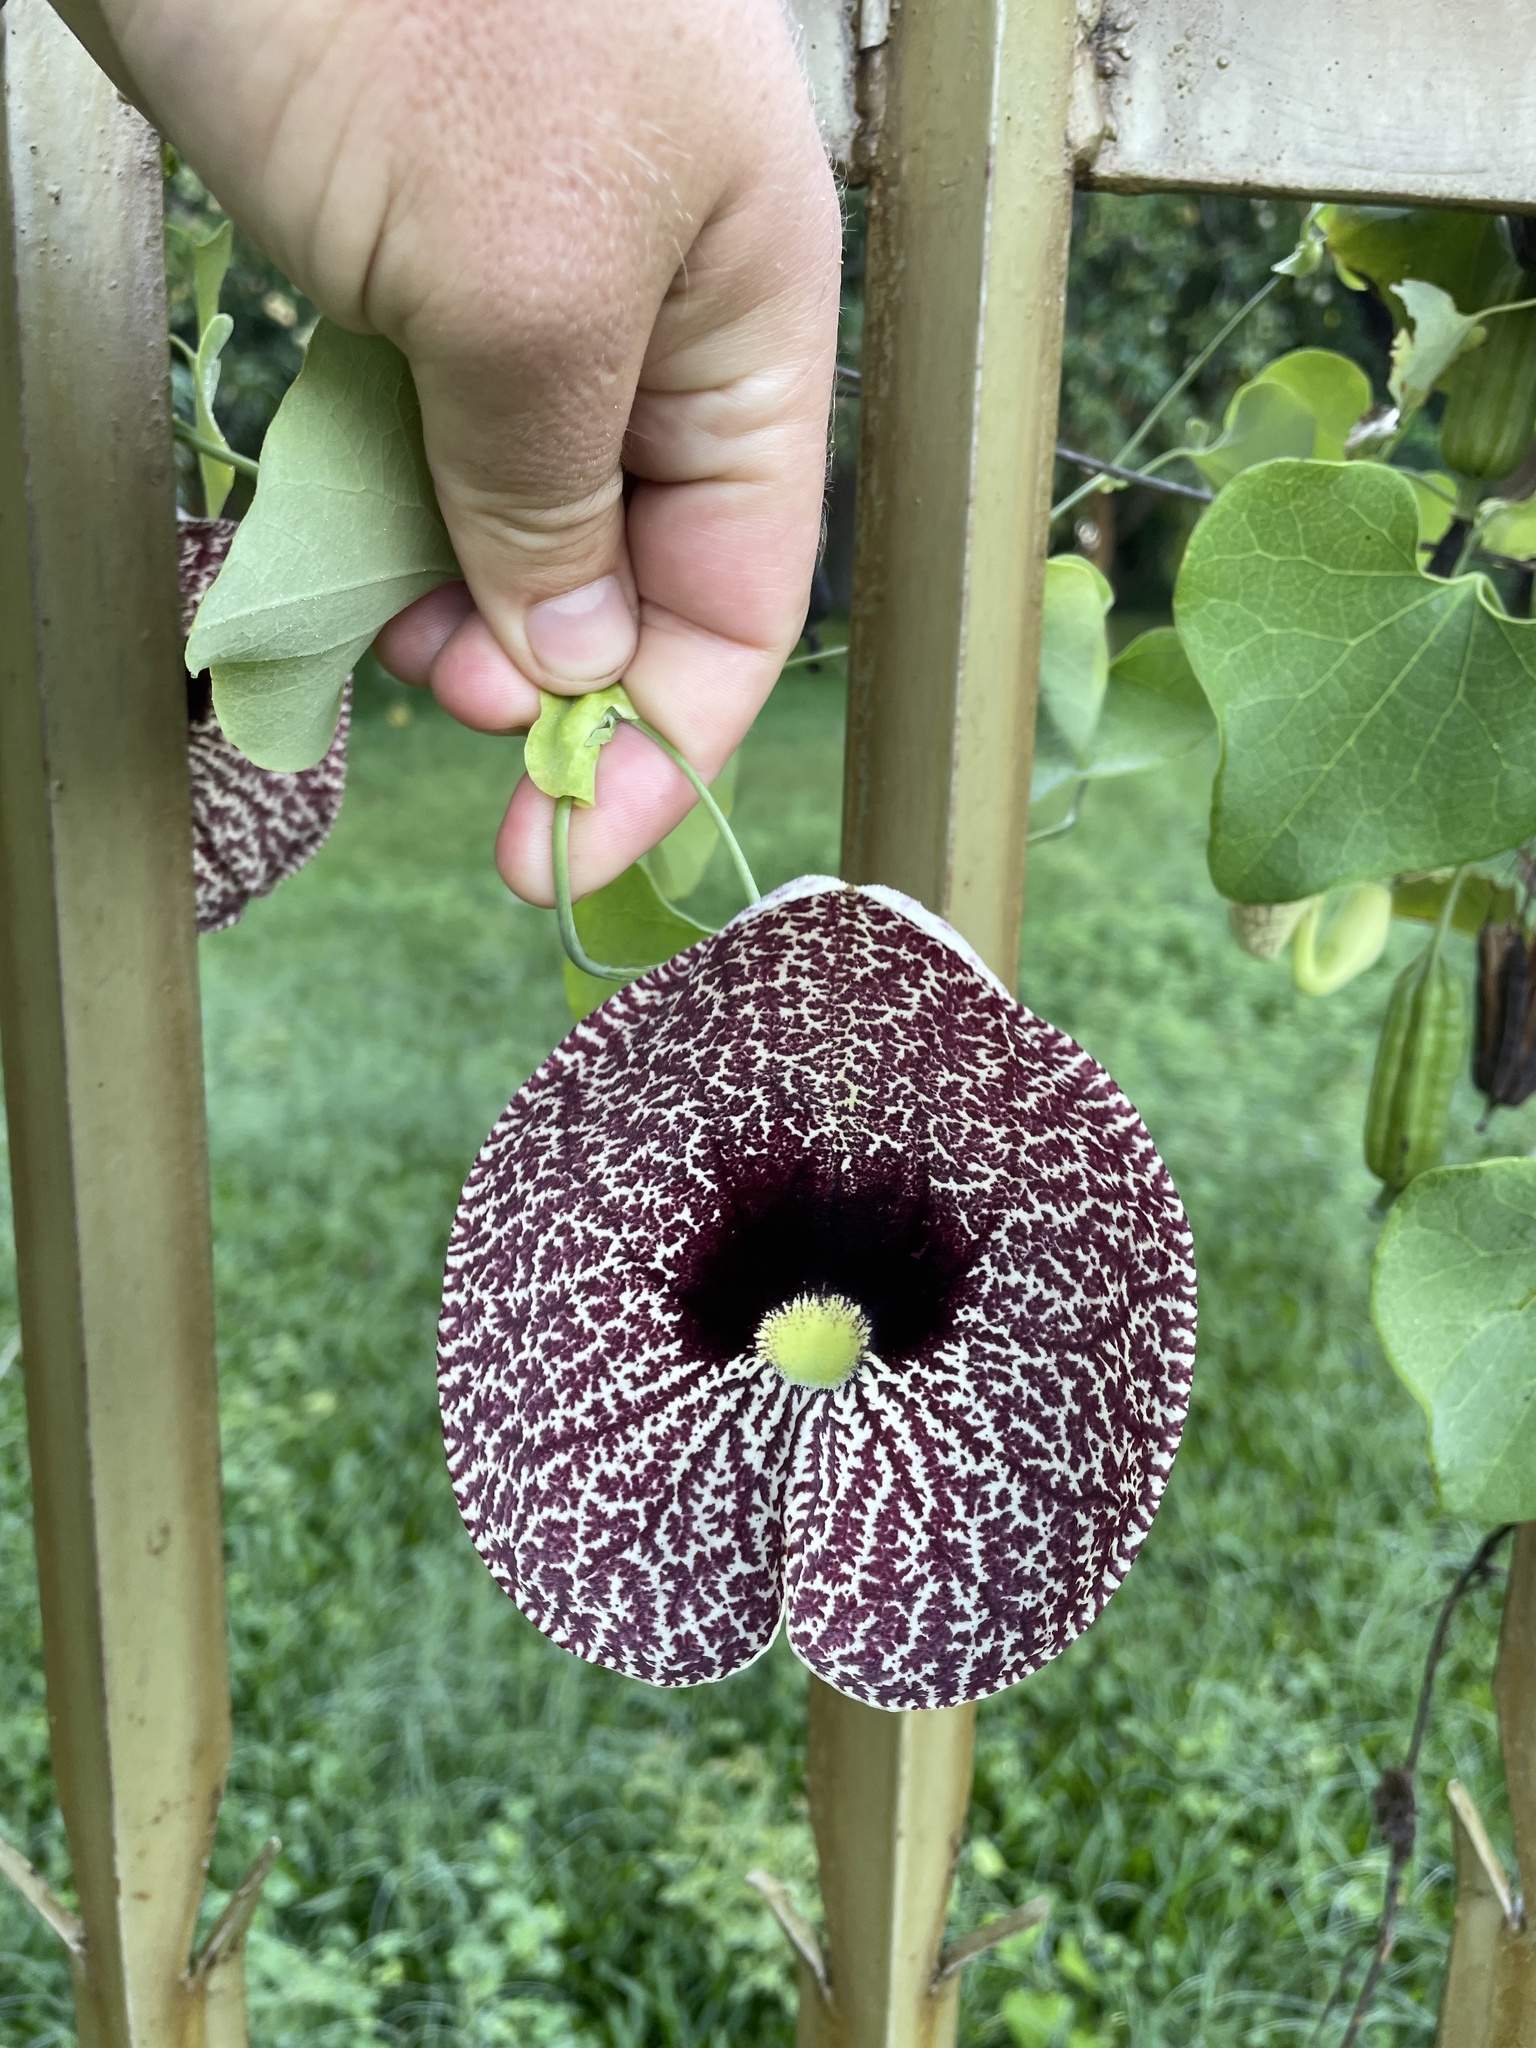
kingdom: Plantae
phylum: Tracheophyta
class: Magnoliopsida
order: Piperales
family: Aristolochiaceae
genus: Aristolochia
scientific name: Aristolochia littoralis
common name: Duck
